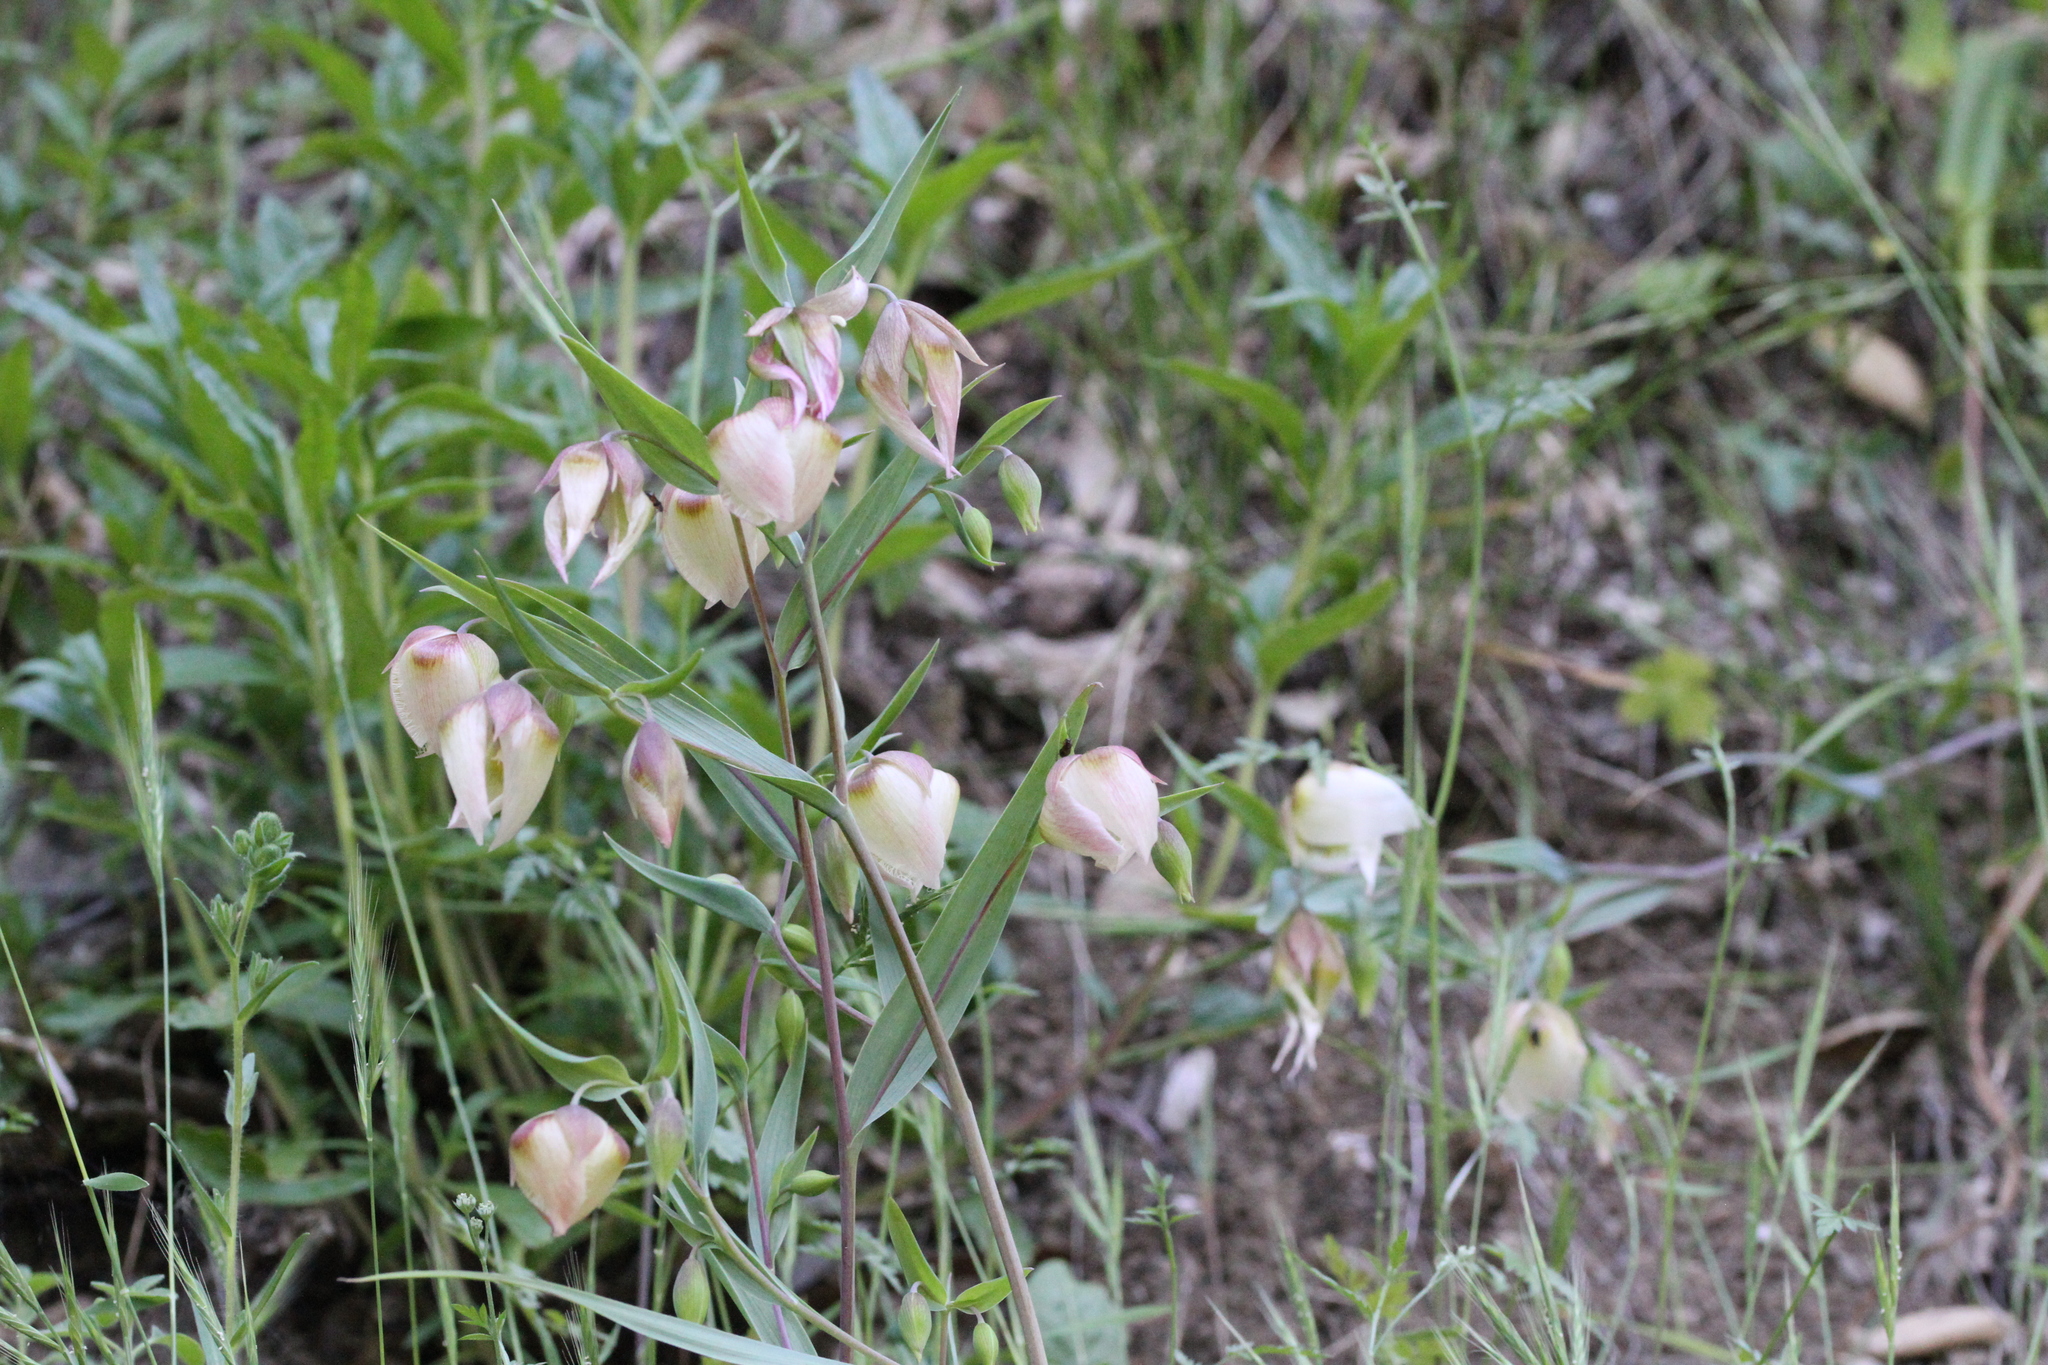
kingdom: Plantae
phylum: Tracheophyta
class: Liliopsida
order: Liliales
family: Liliaceae
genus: Calochortus
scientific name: Calochortus albus
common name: Fairy-lantern
